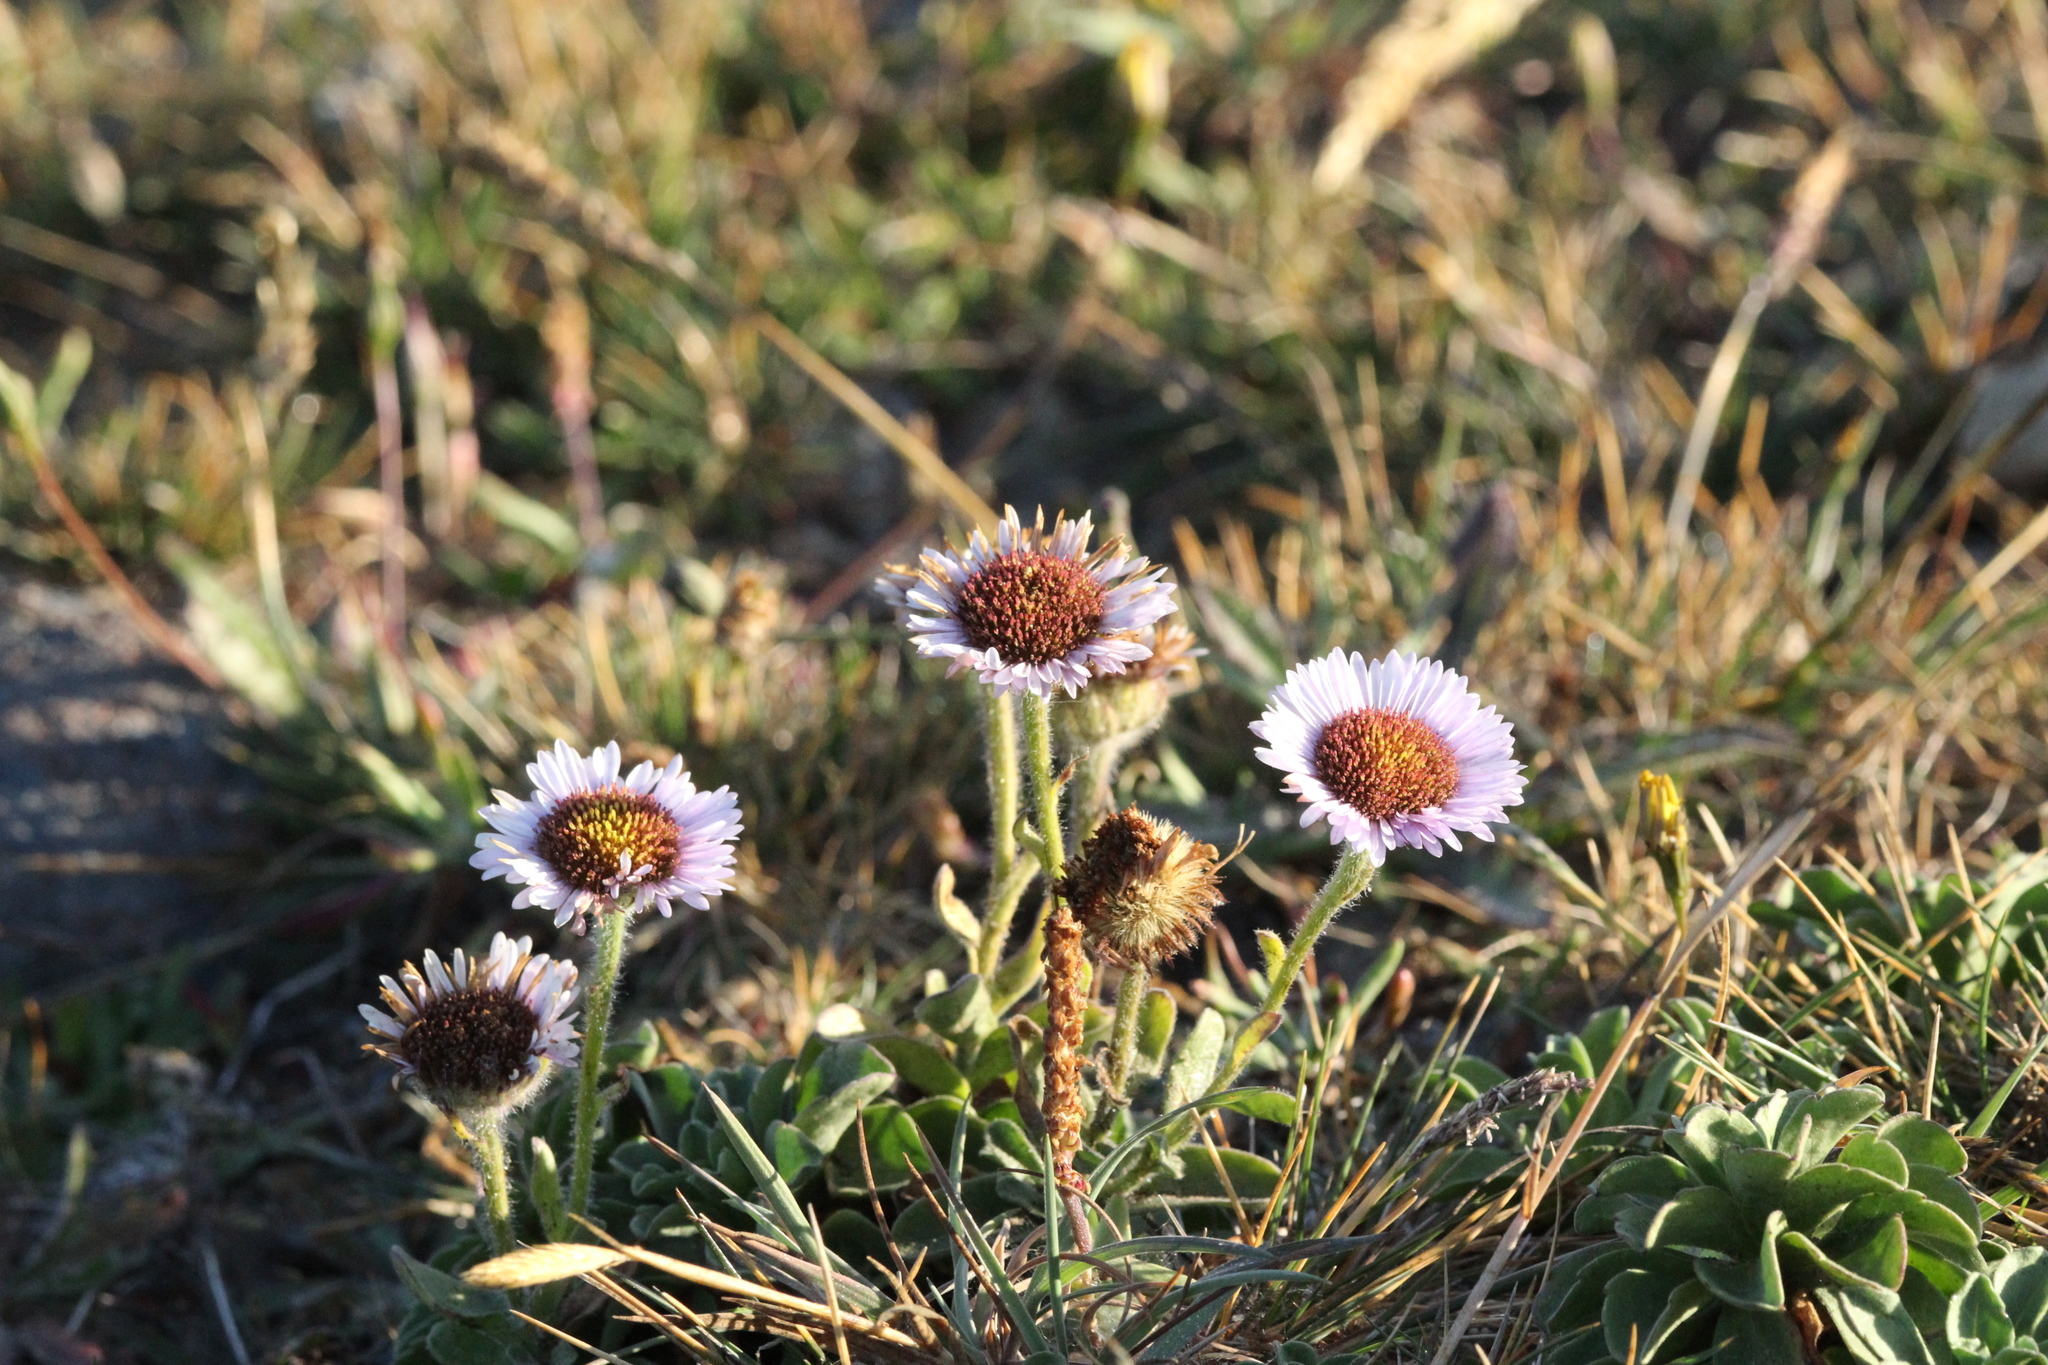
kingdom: Plantae
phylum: Tracheophyta
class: Magnoliopsida
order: Asterales
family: Asteraceae
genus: Erigeron
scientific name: Erigeron glaucus
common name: Seaside daisy
